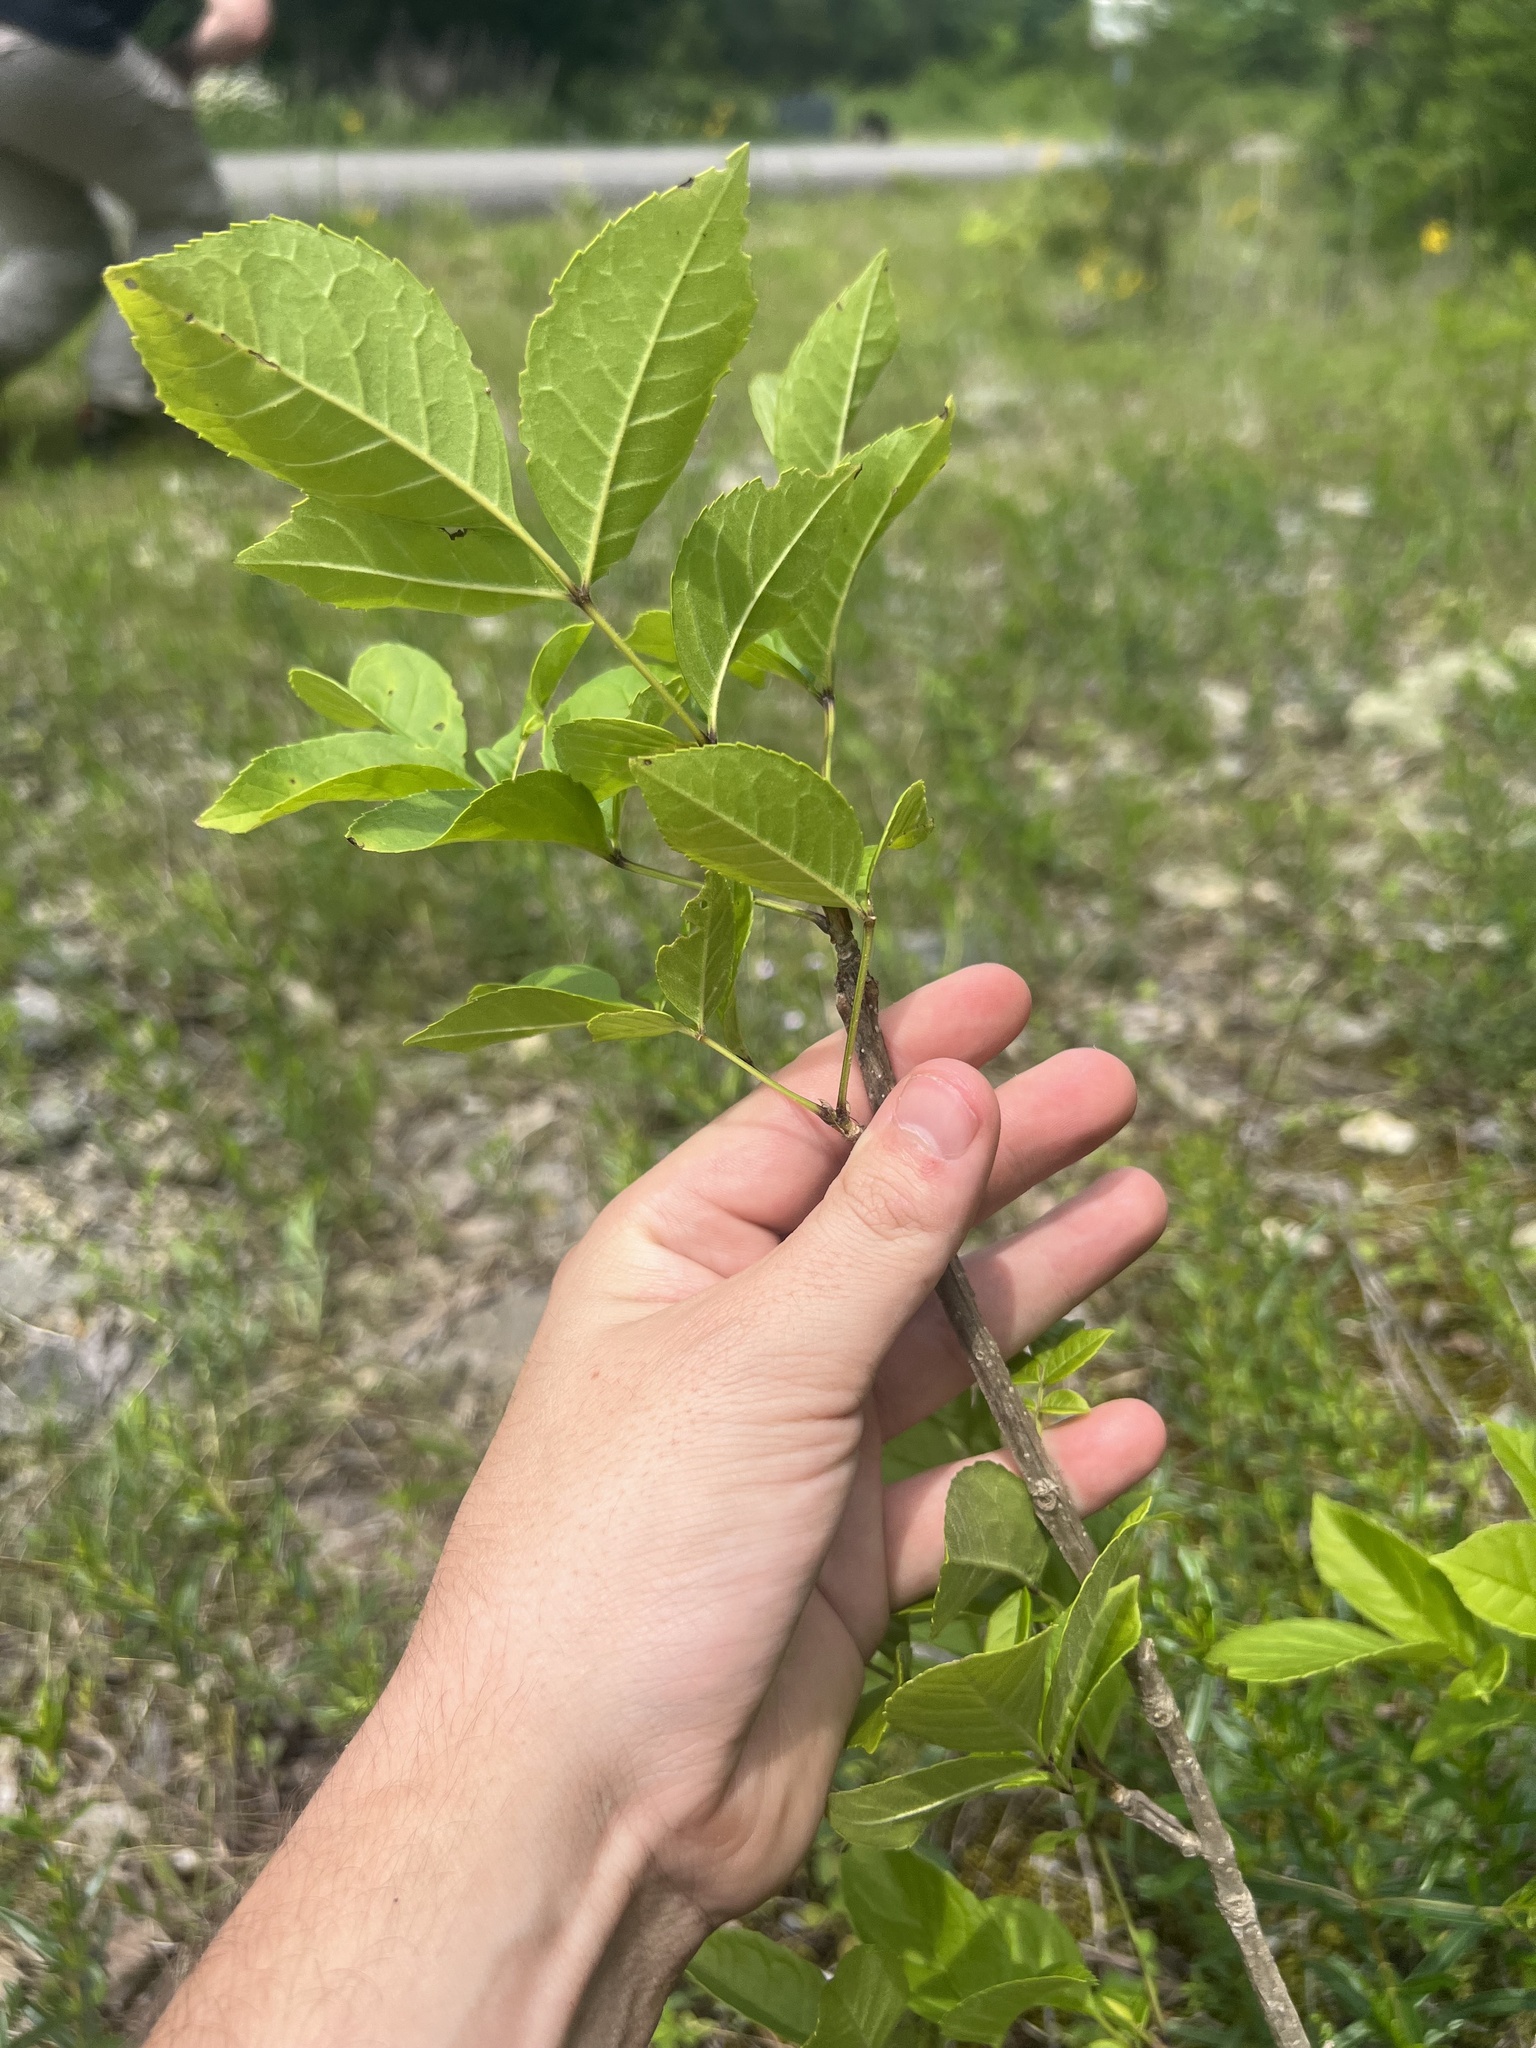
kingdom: Plantae
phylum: Tracheophyta
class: Magnoliopsida
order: Lamiales
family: Oleaceae
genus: Fraxinus
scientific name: Fraxinus quadrangulata
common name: Blue ash
